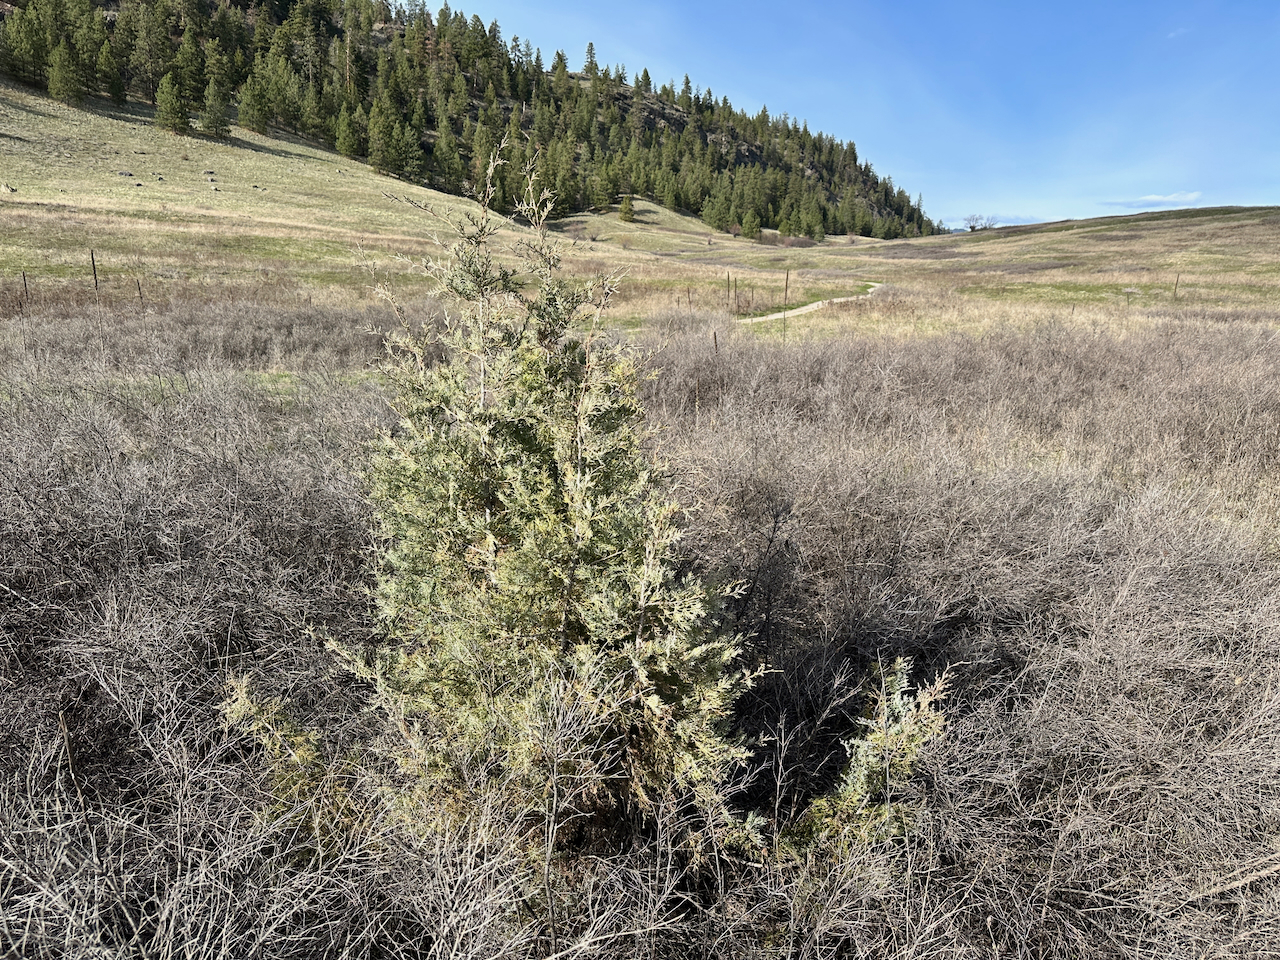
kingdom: Plantae
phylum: Tracheophyta
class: Pinopsida
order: Pinales
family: Cupressaceae
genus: Juniperus
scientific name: Juniperus scopulorum
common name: Rocky mountain juniper
